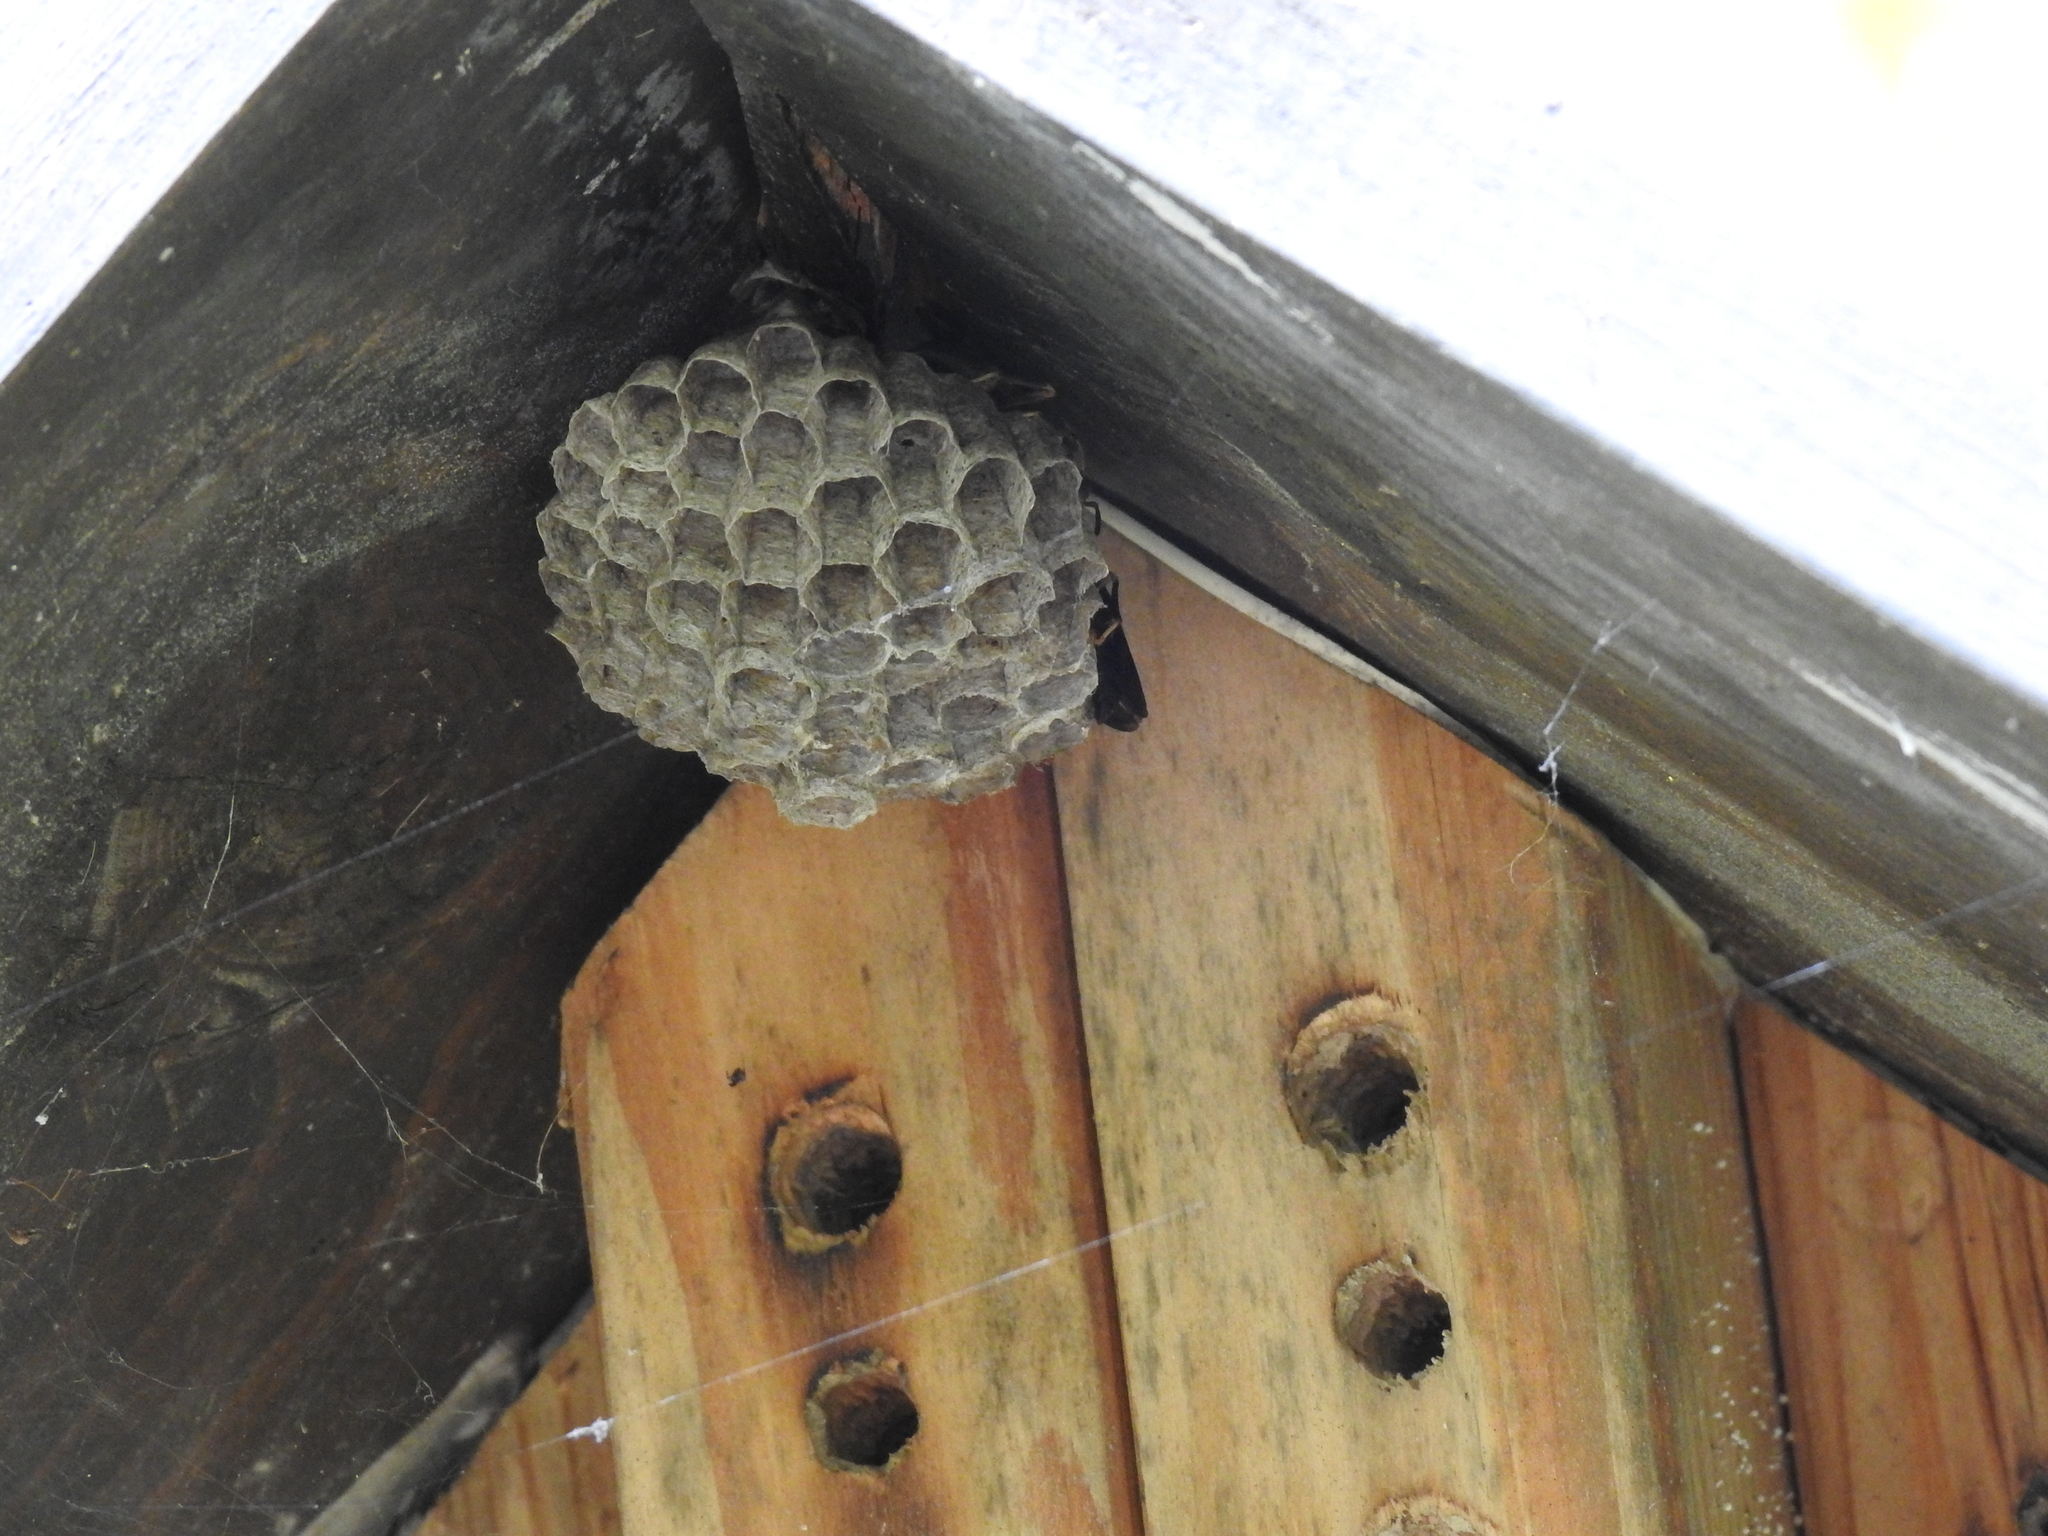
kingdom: Animalia
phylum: Arthropoda
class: Insecta
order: Hymenoptera
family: Eumenidae
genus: Polistes
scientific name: Polistes
